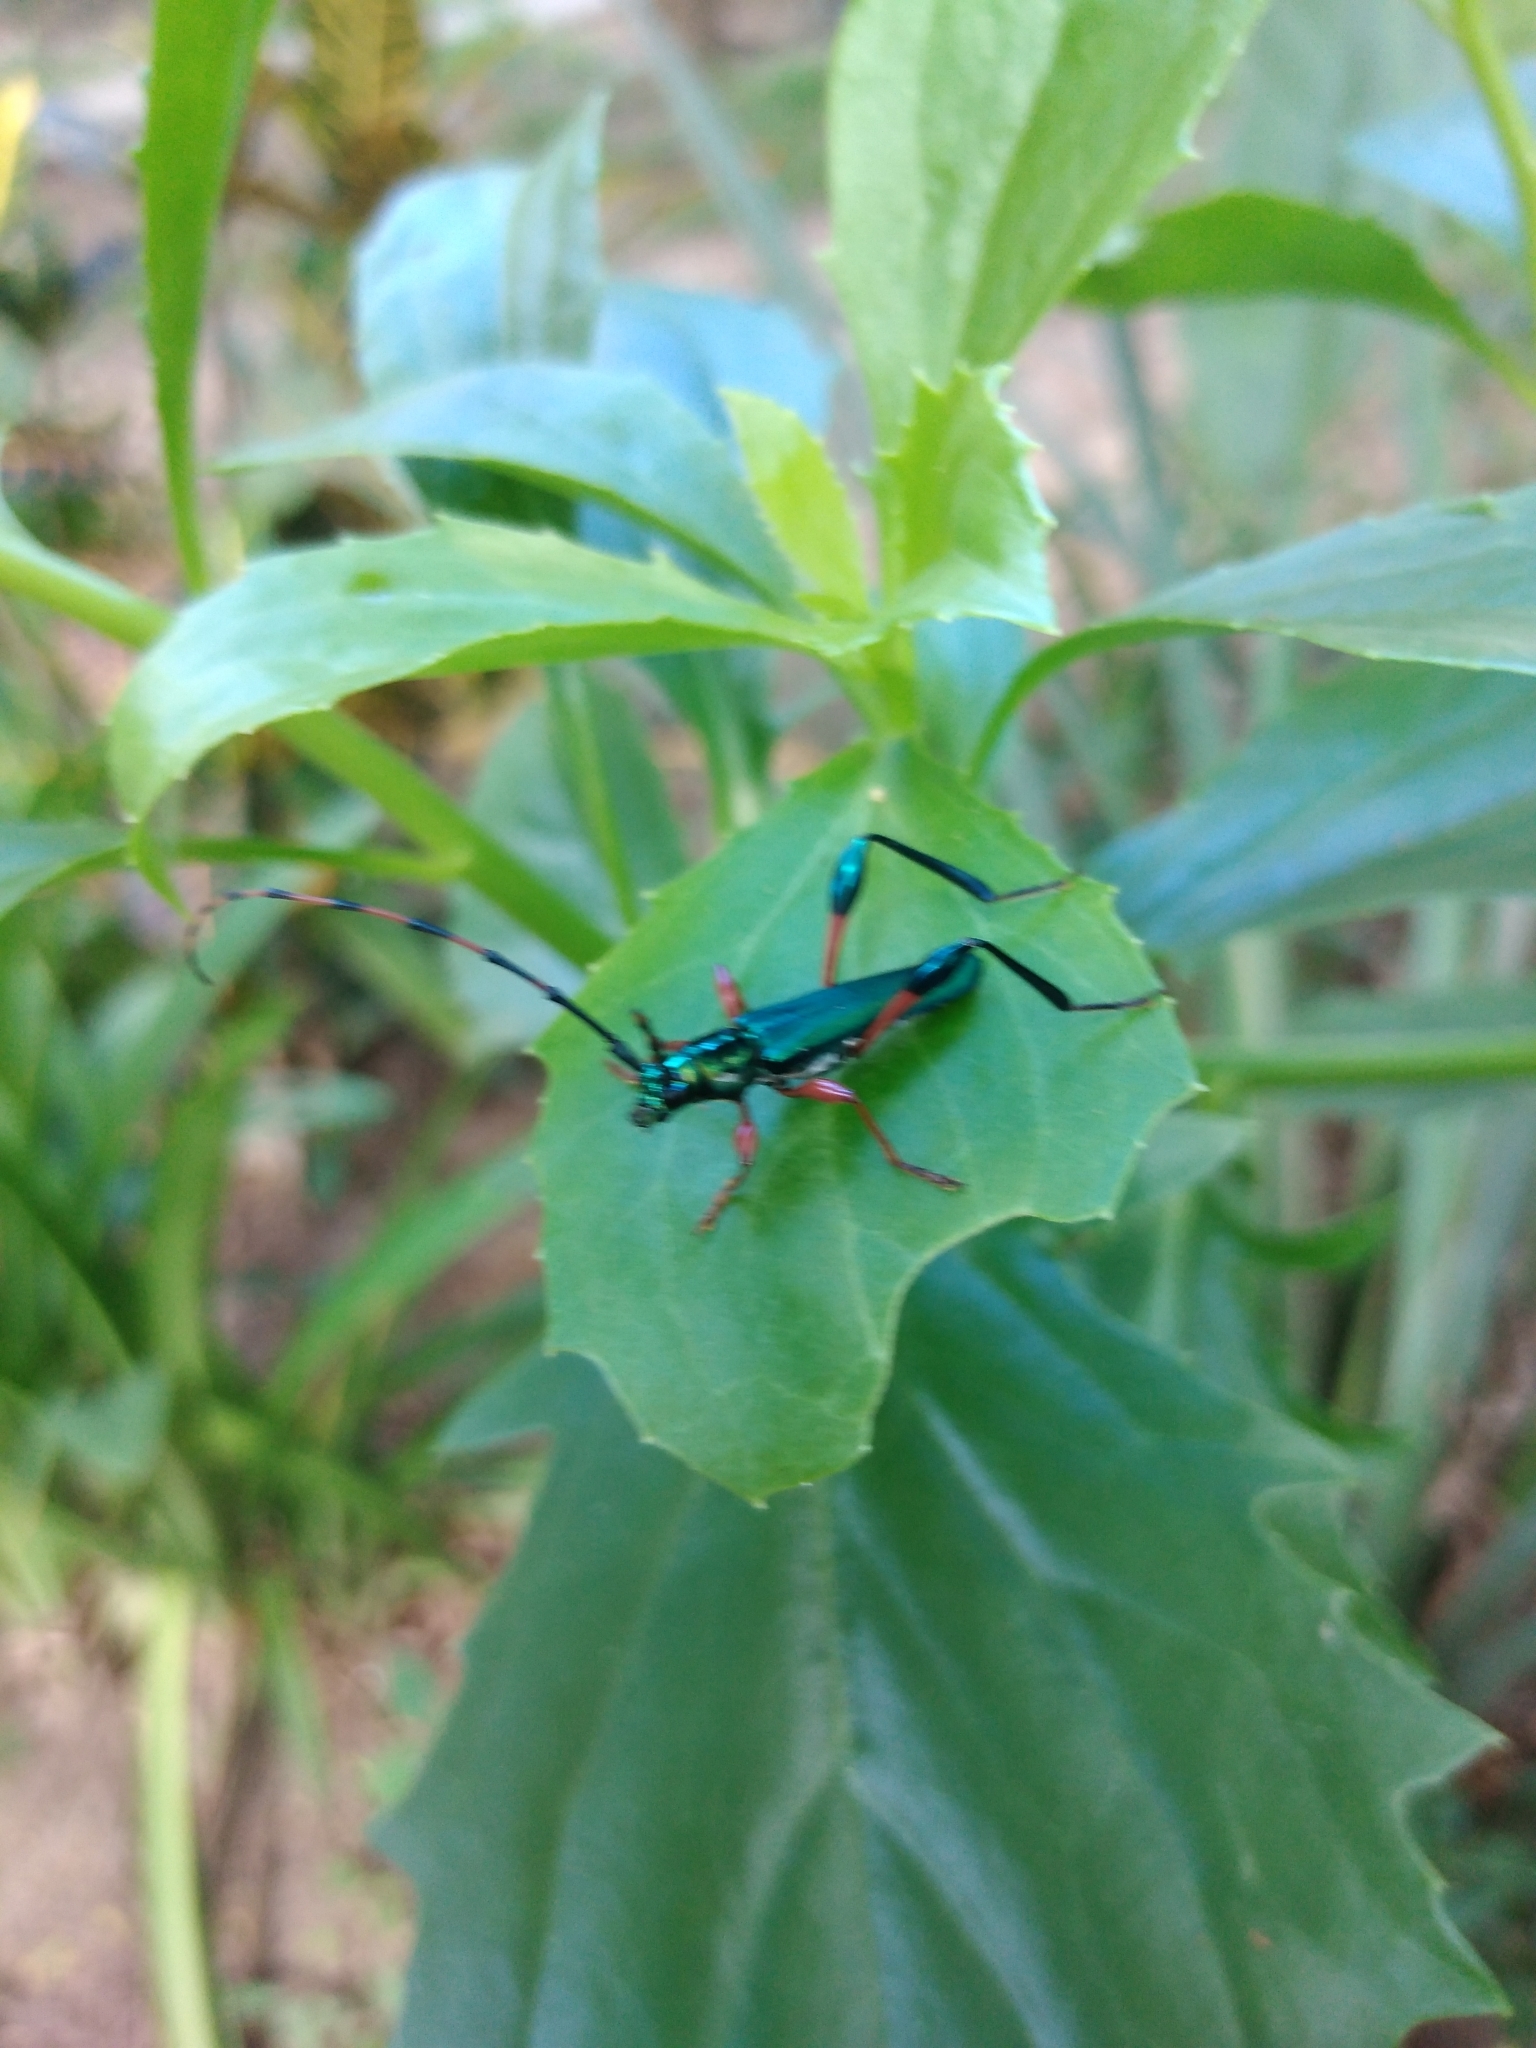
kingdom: Animalia
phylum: Arthropoda
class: Insecta
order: Coleoptera
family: Cerambycidae
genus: Litopus
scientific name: Litopus latipes
